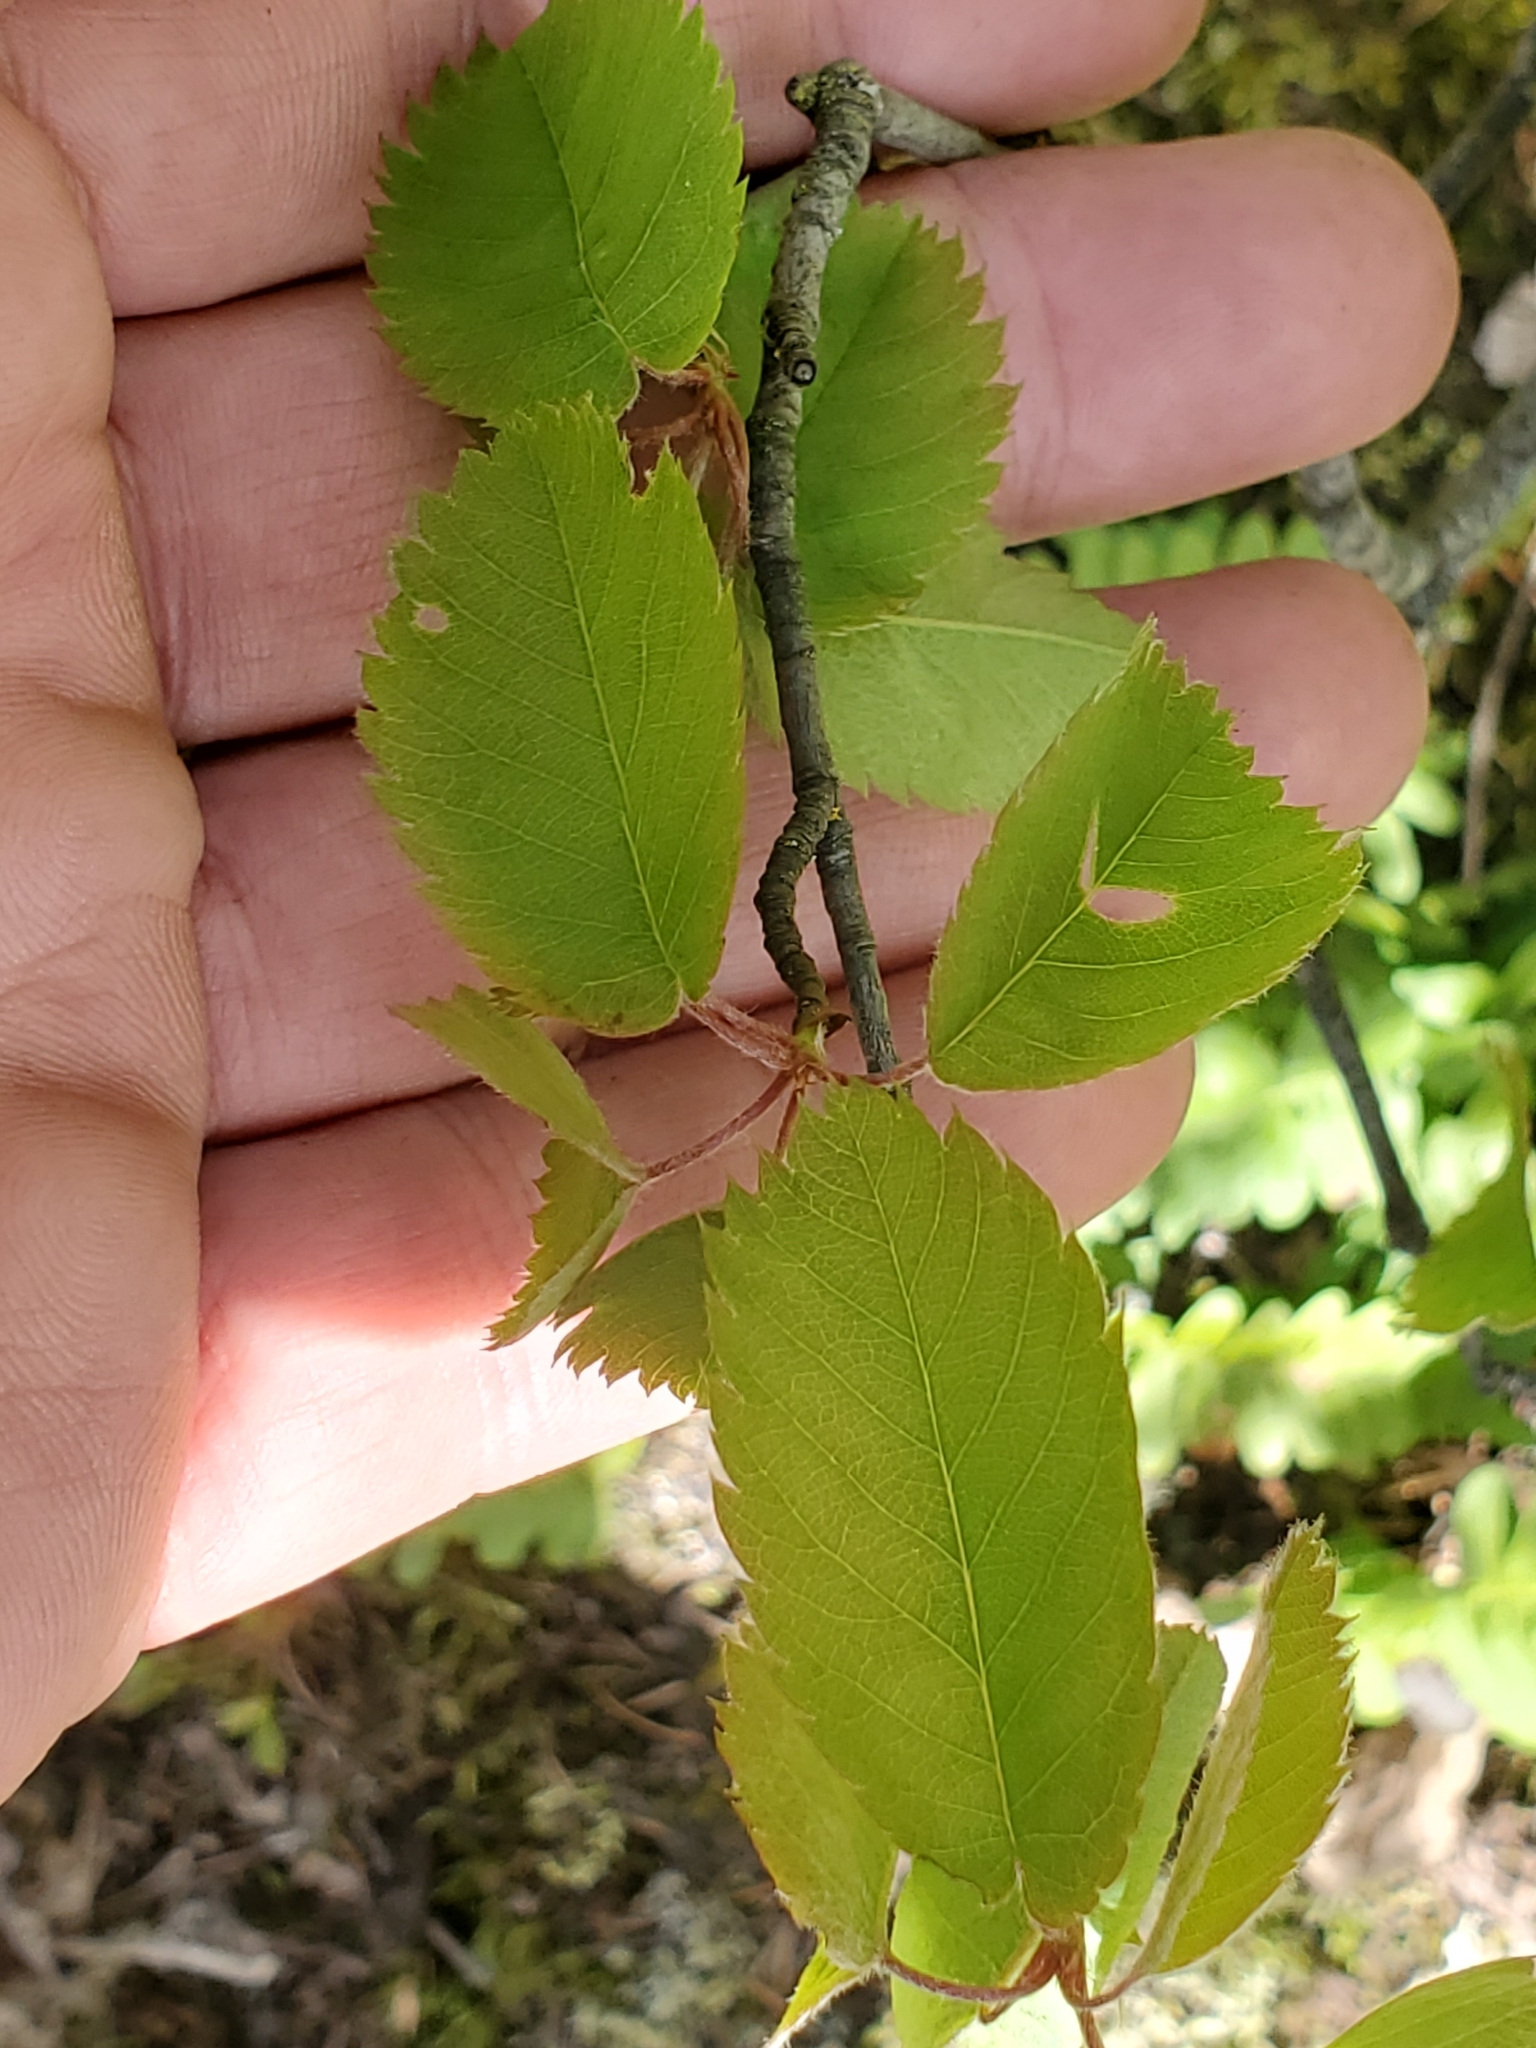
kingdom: Plantae
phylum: Tracheophyta
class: Magnoliopsida
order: Rosales
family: Rosaceae
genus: Amelanchier
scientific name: Amelanchier alnifolia
